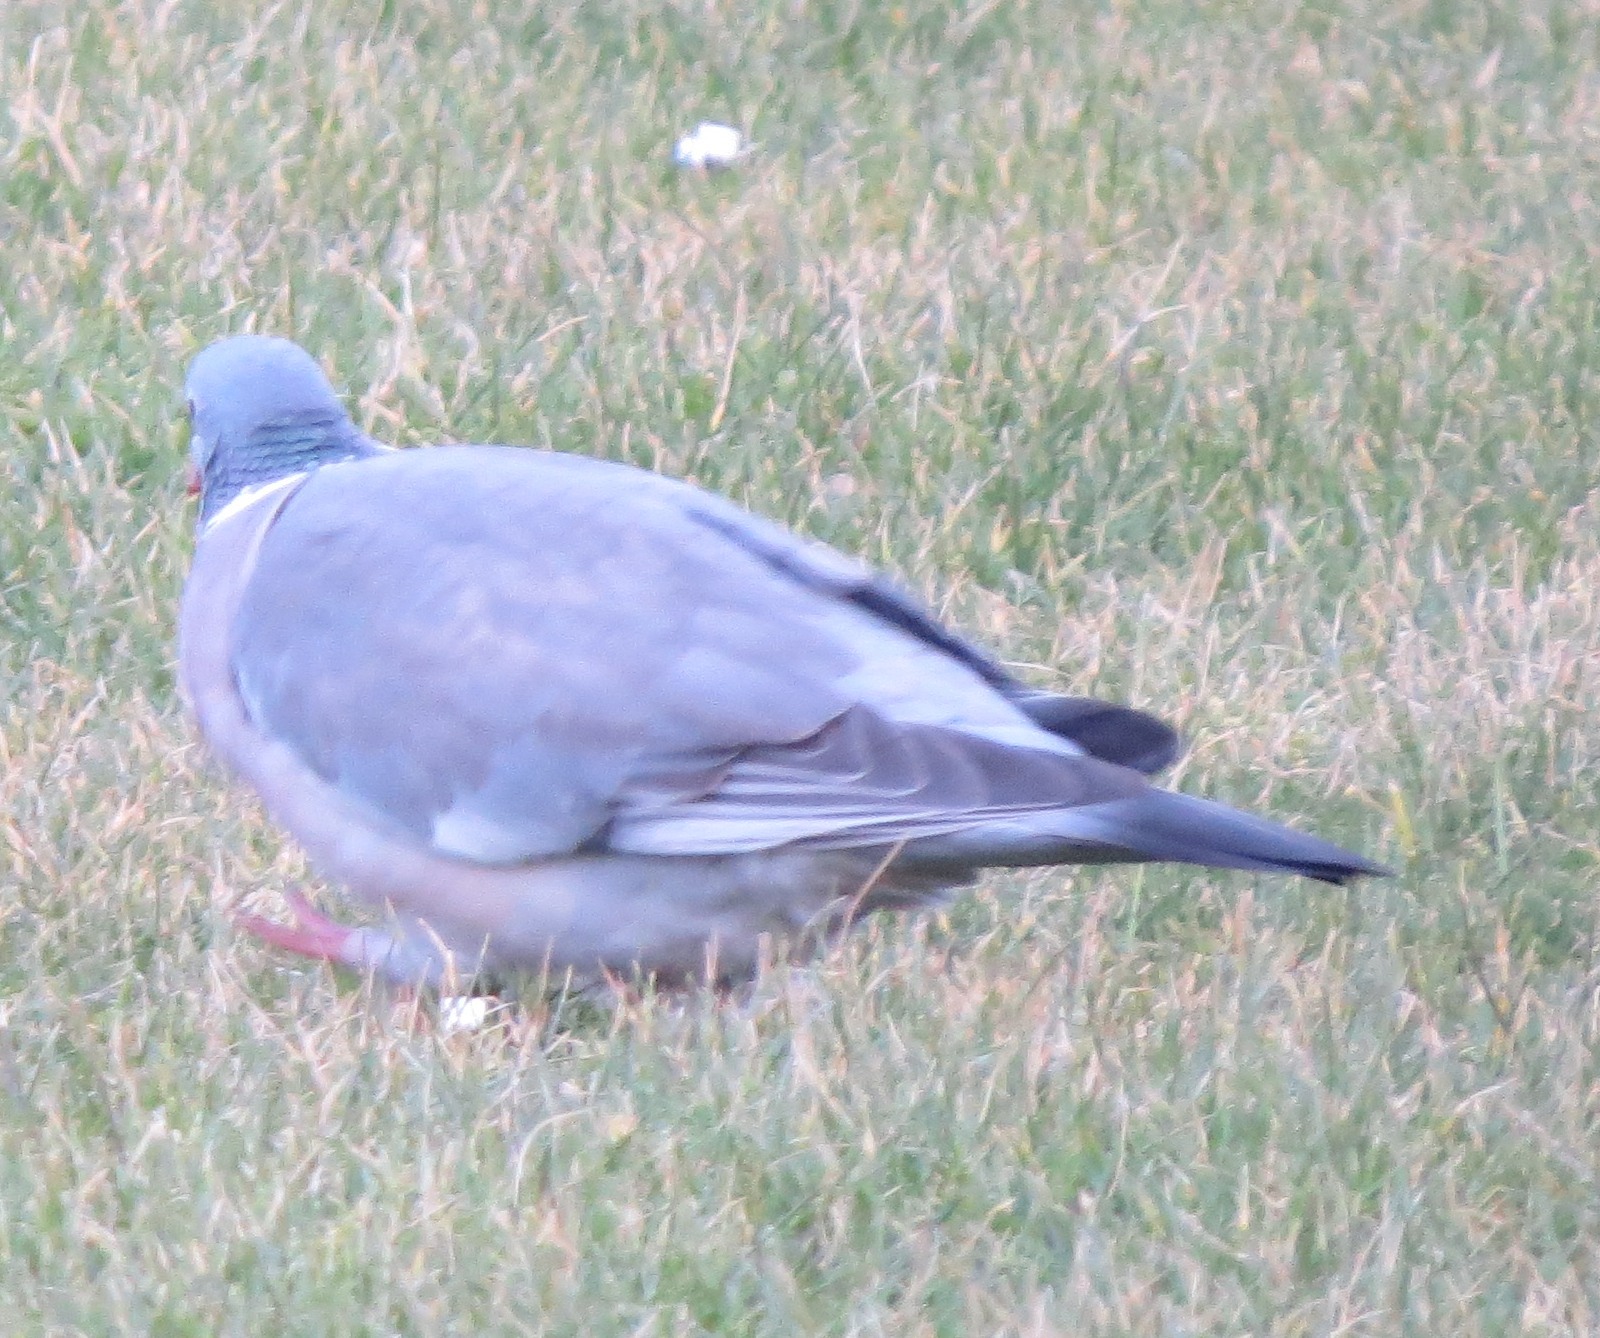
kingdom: Animalia
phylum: Chordata
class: Aves
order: Columbiformes
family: Columbidae
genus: Columba
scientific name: Columba palumbus
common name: Common wood pigeon
